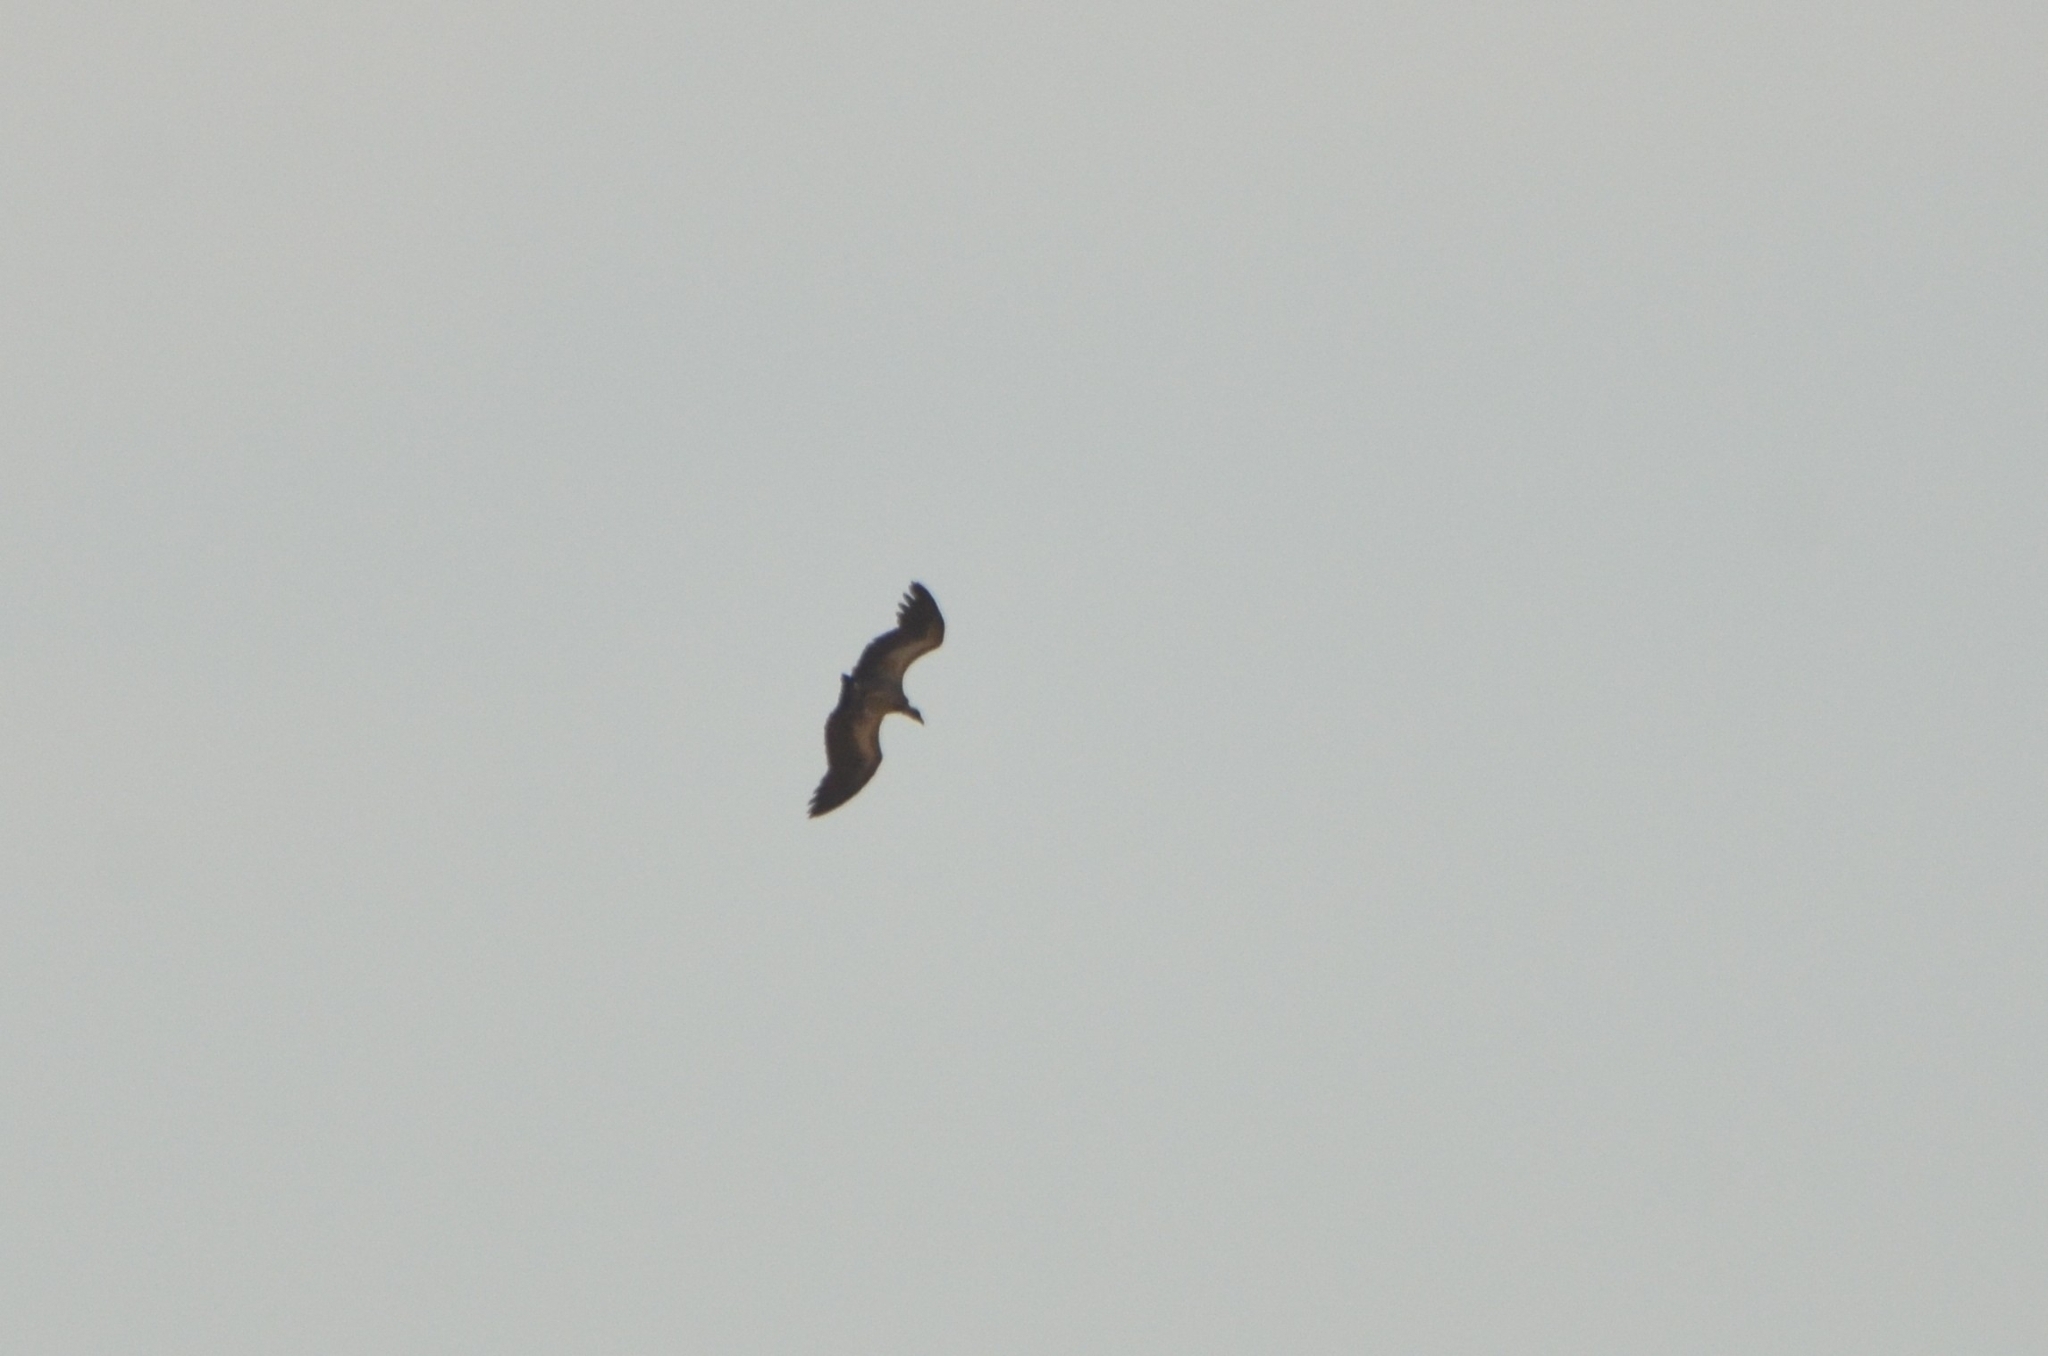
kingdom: Animalia
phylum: Chordata
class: Aves
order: Accipitriformes
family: Accipitridae
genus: Gyps
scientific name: Gyps africanus
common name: White-backed vulture
